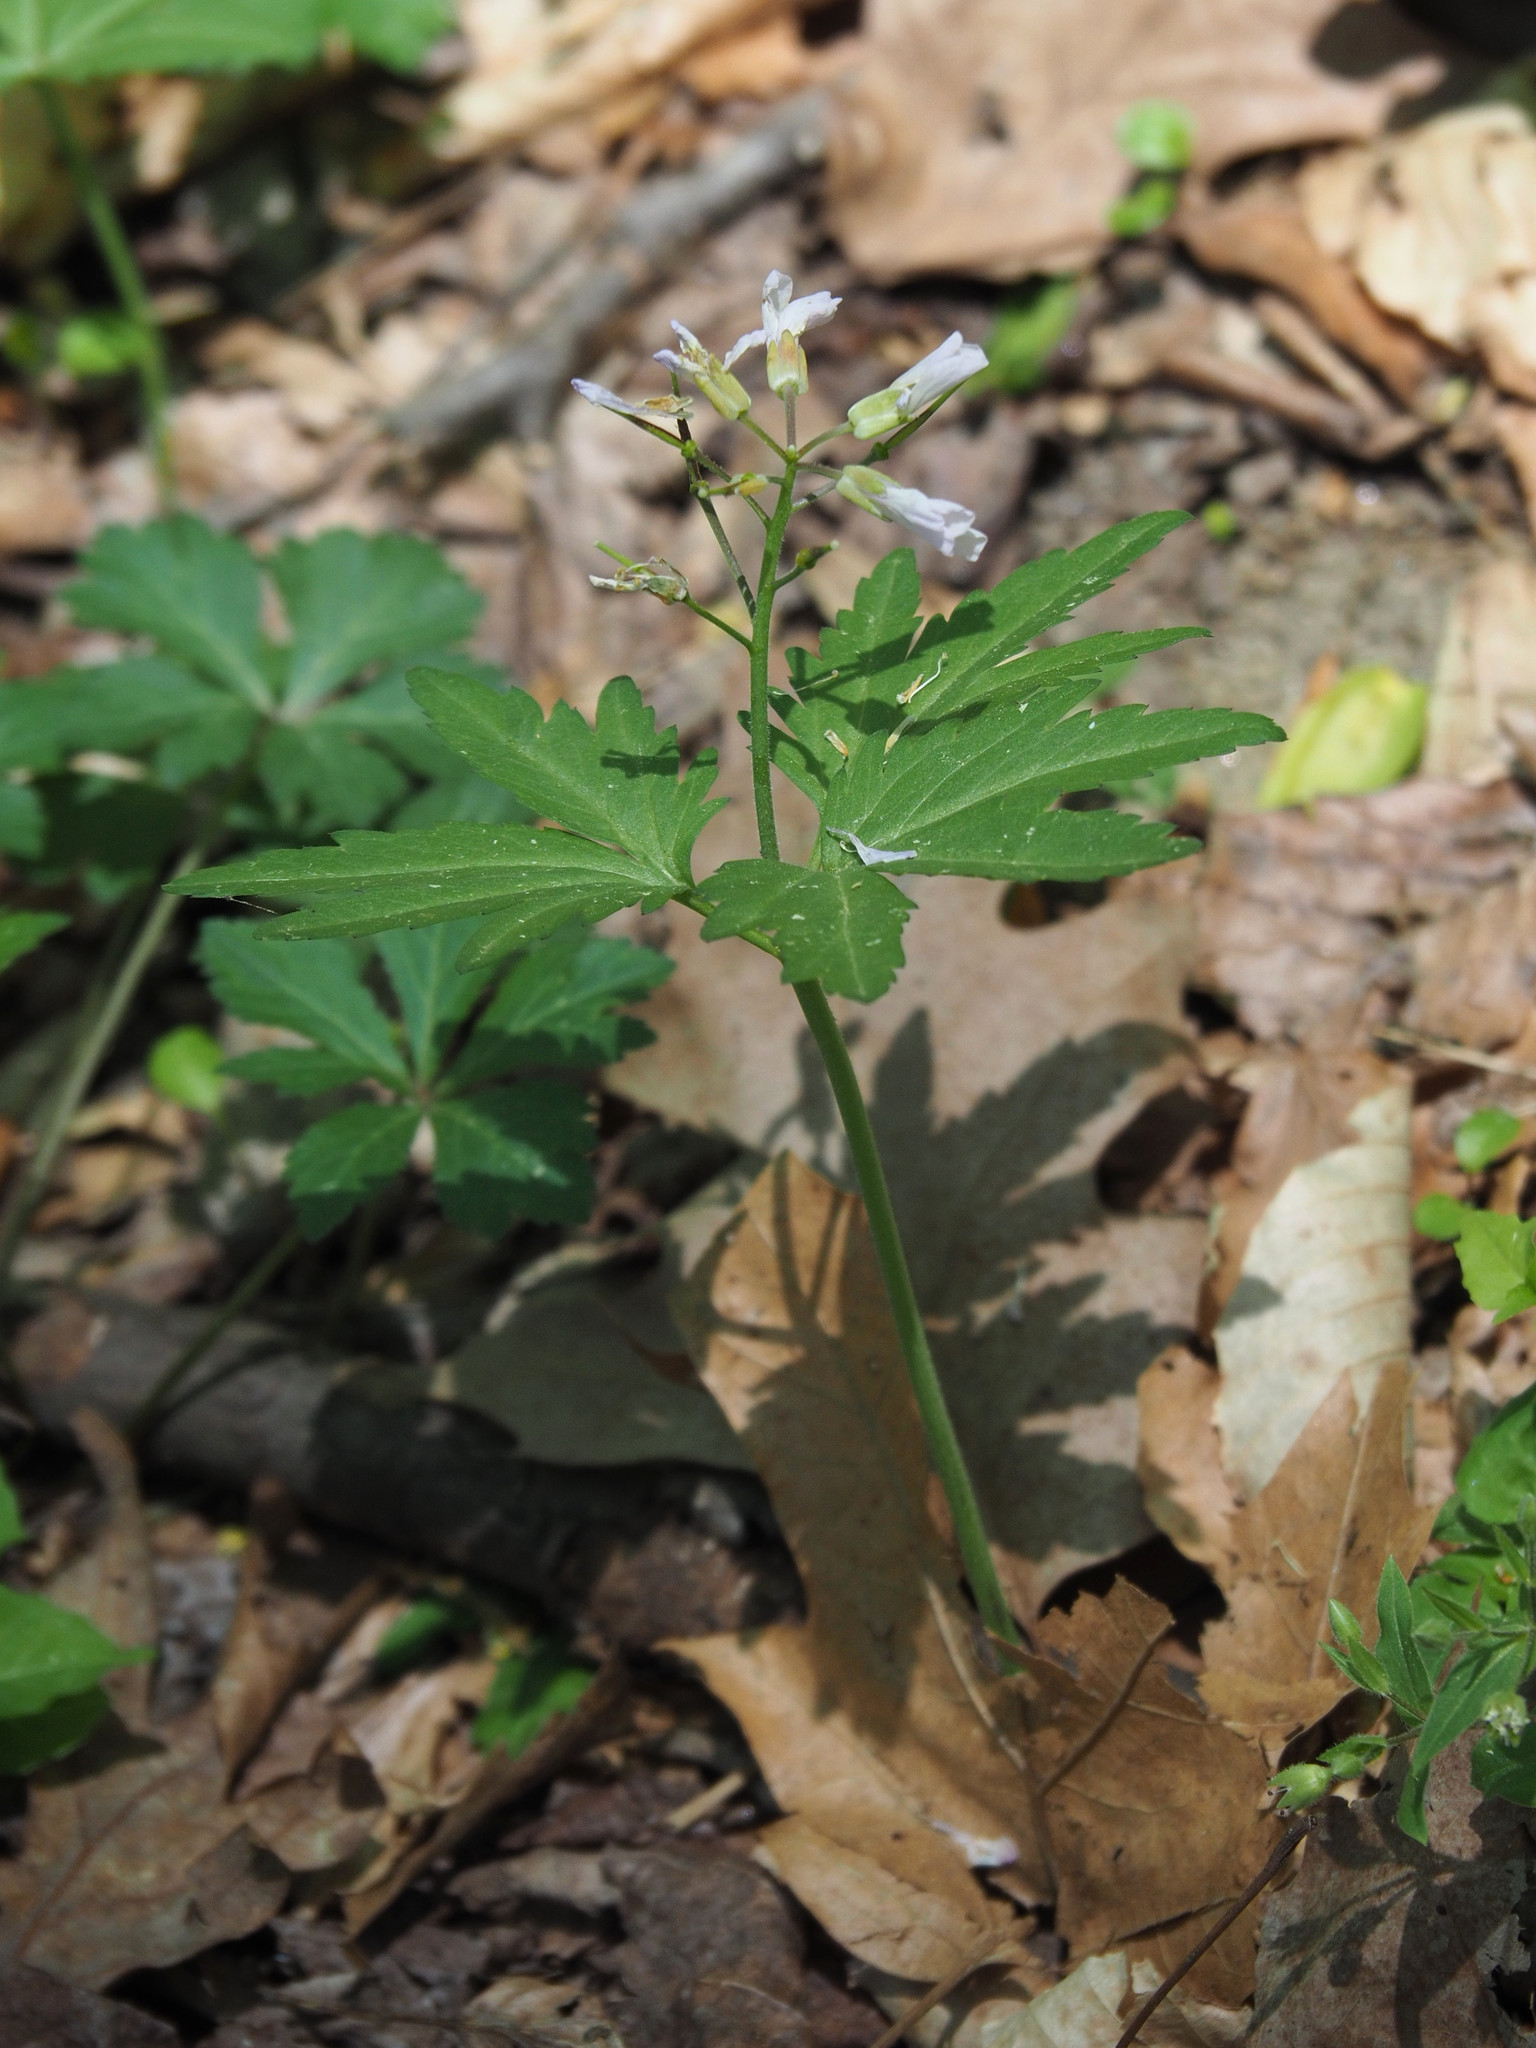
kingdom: Plantae
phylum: Tracheophyta
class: Magnoliopsida
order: Brassicales
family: Brassicaceae
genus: Cardamine
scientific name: Cardamine concatenata
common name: Cut-leaf toothcup
